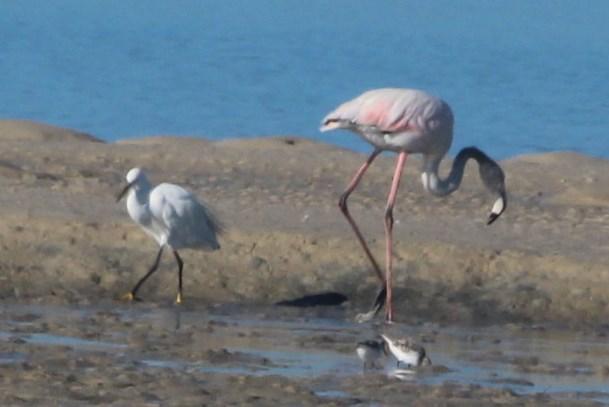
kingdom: Animalia
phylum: Chordata
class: Aves
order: Pelecaniformes
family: Ardeidae
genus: Egretta
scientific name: Egretta garzetta
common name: Little egret
